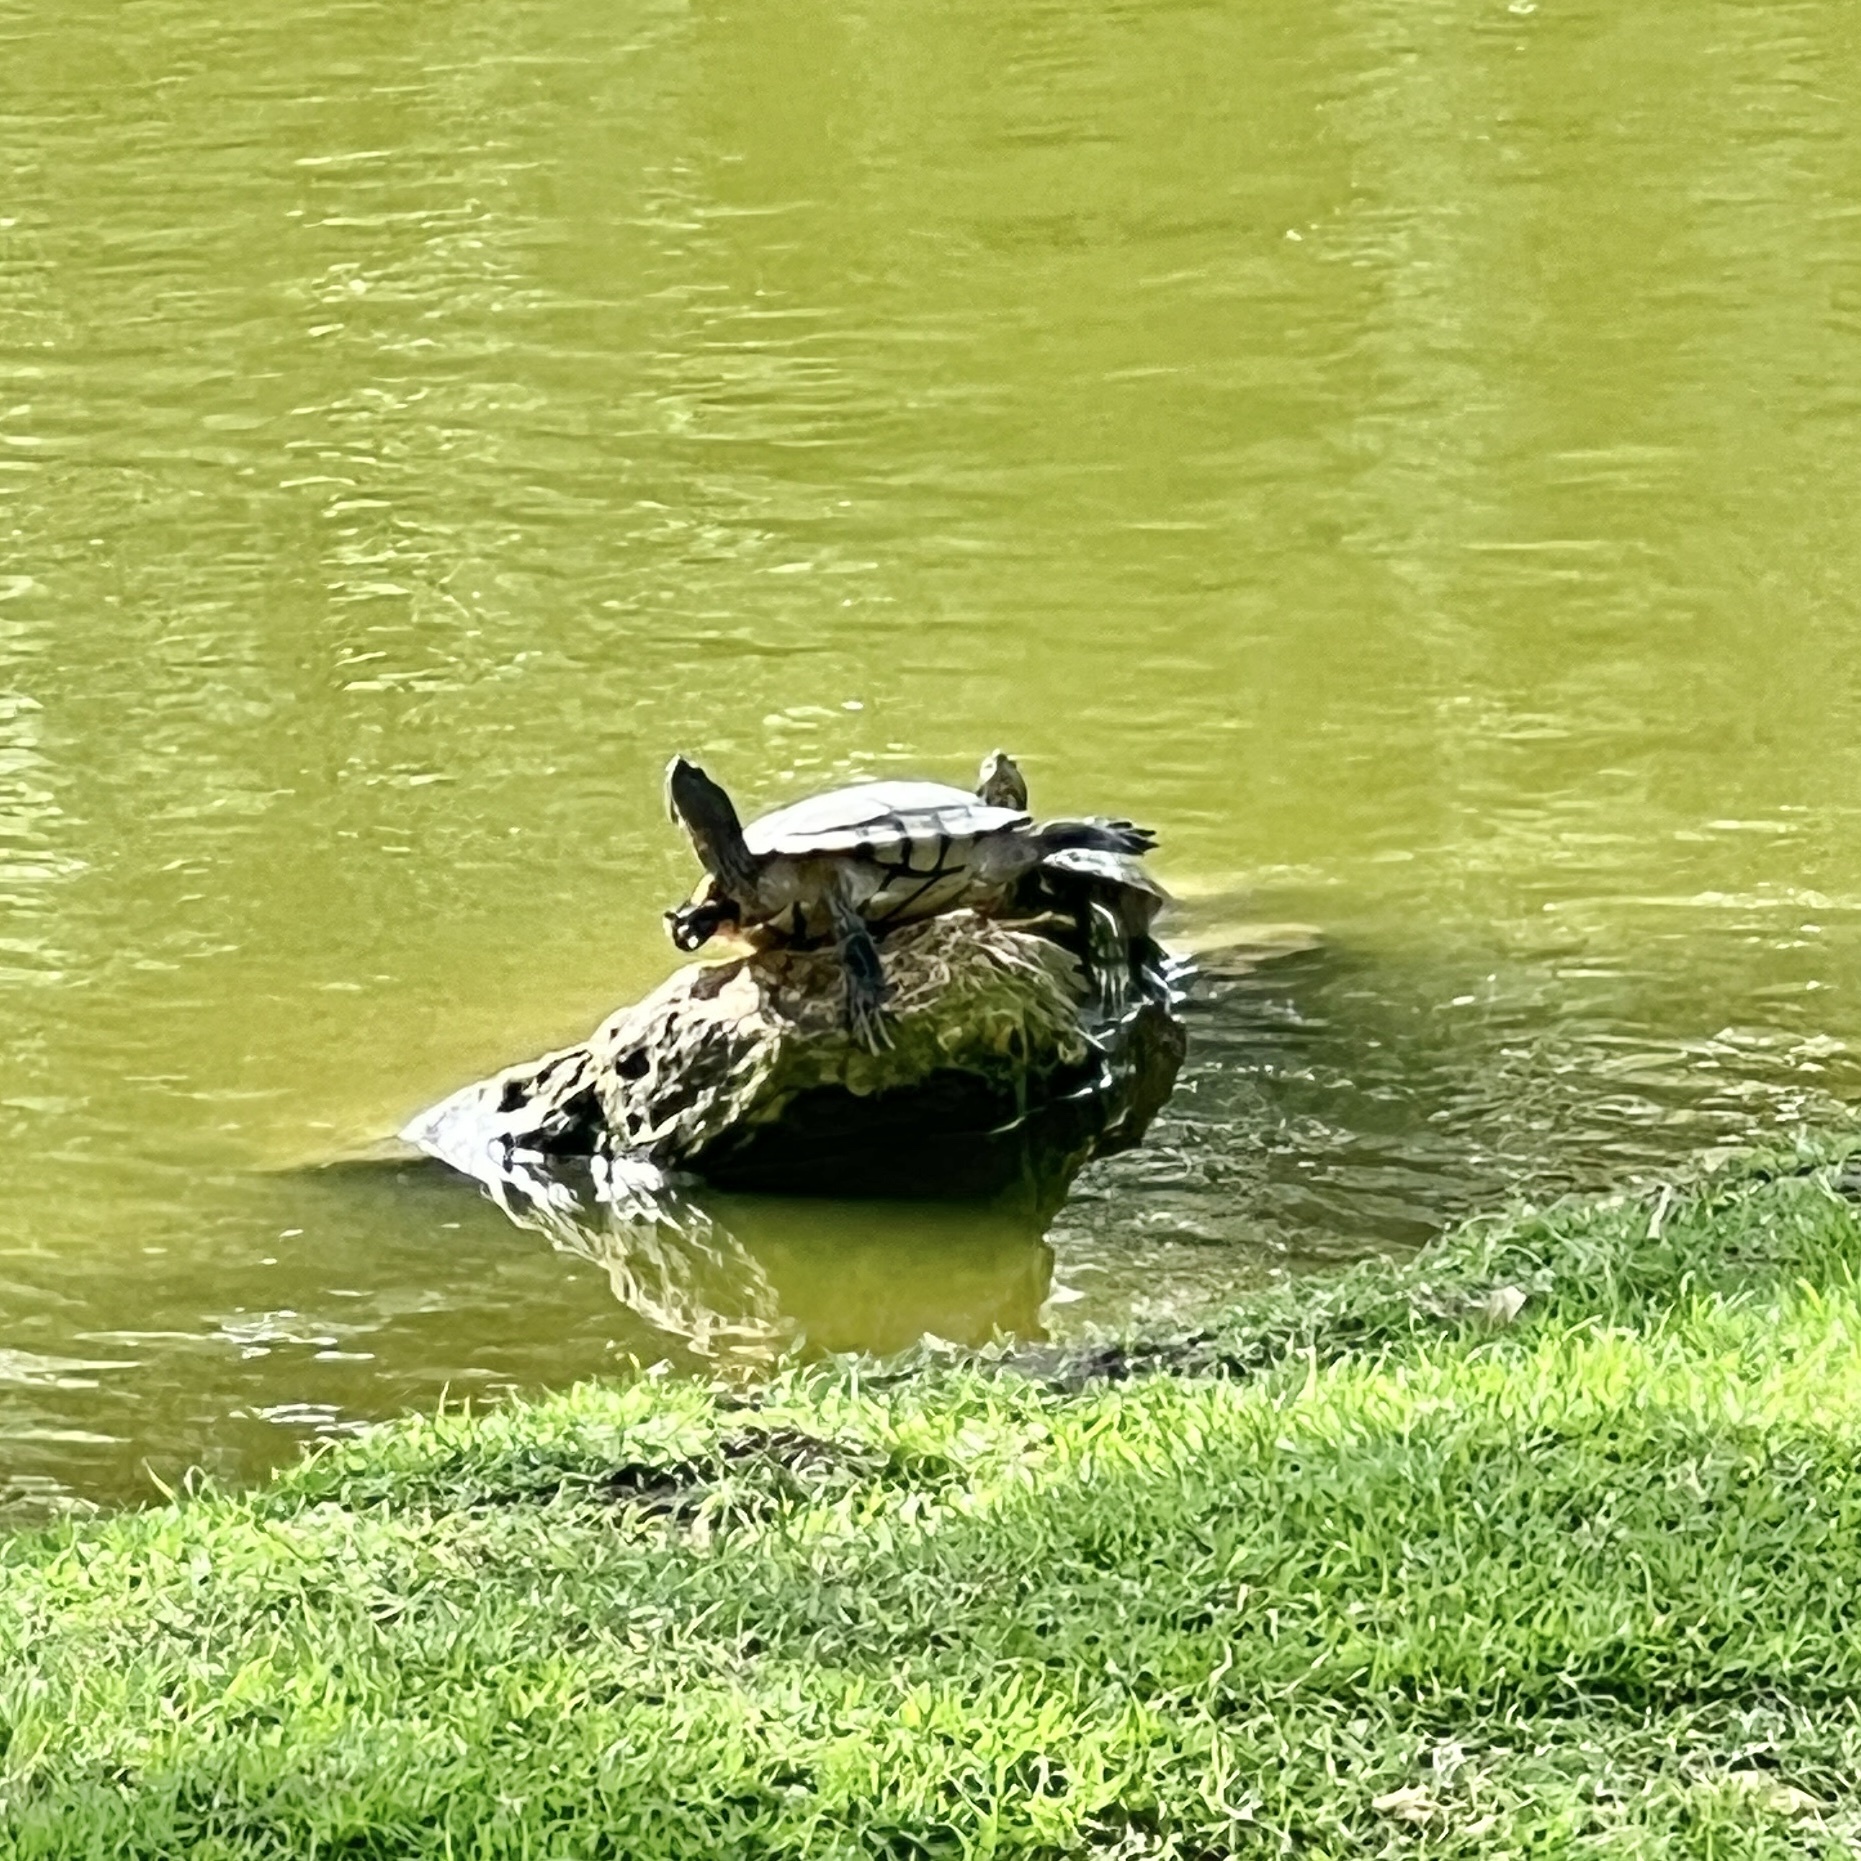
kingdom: Animalia
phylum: Chordata
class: Testudines
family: Emydidae
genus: Trachemys
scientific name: Trachemys scripta
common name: Slider
